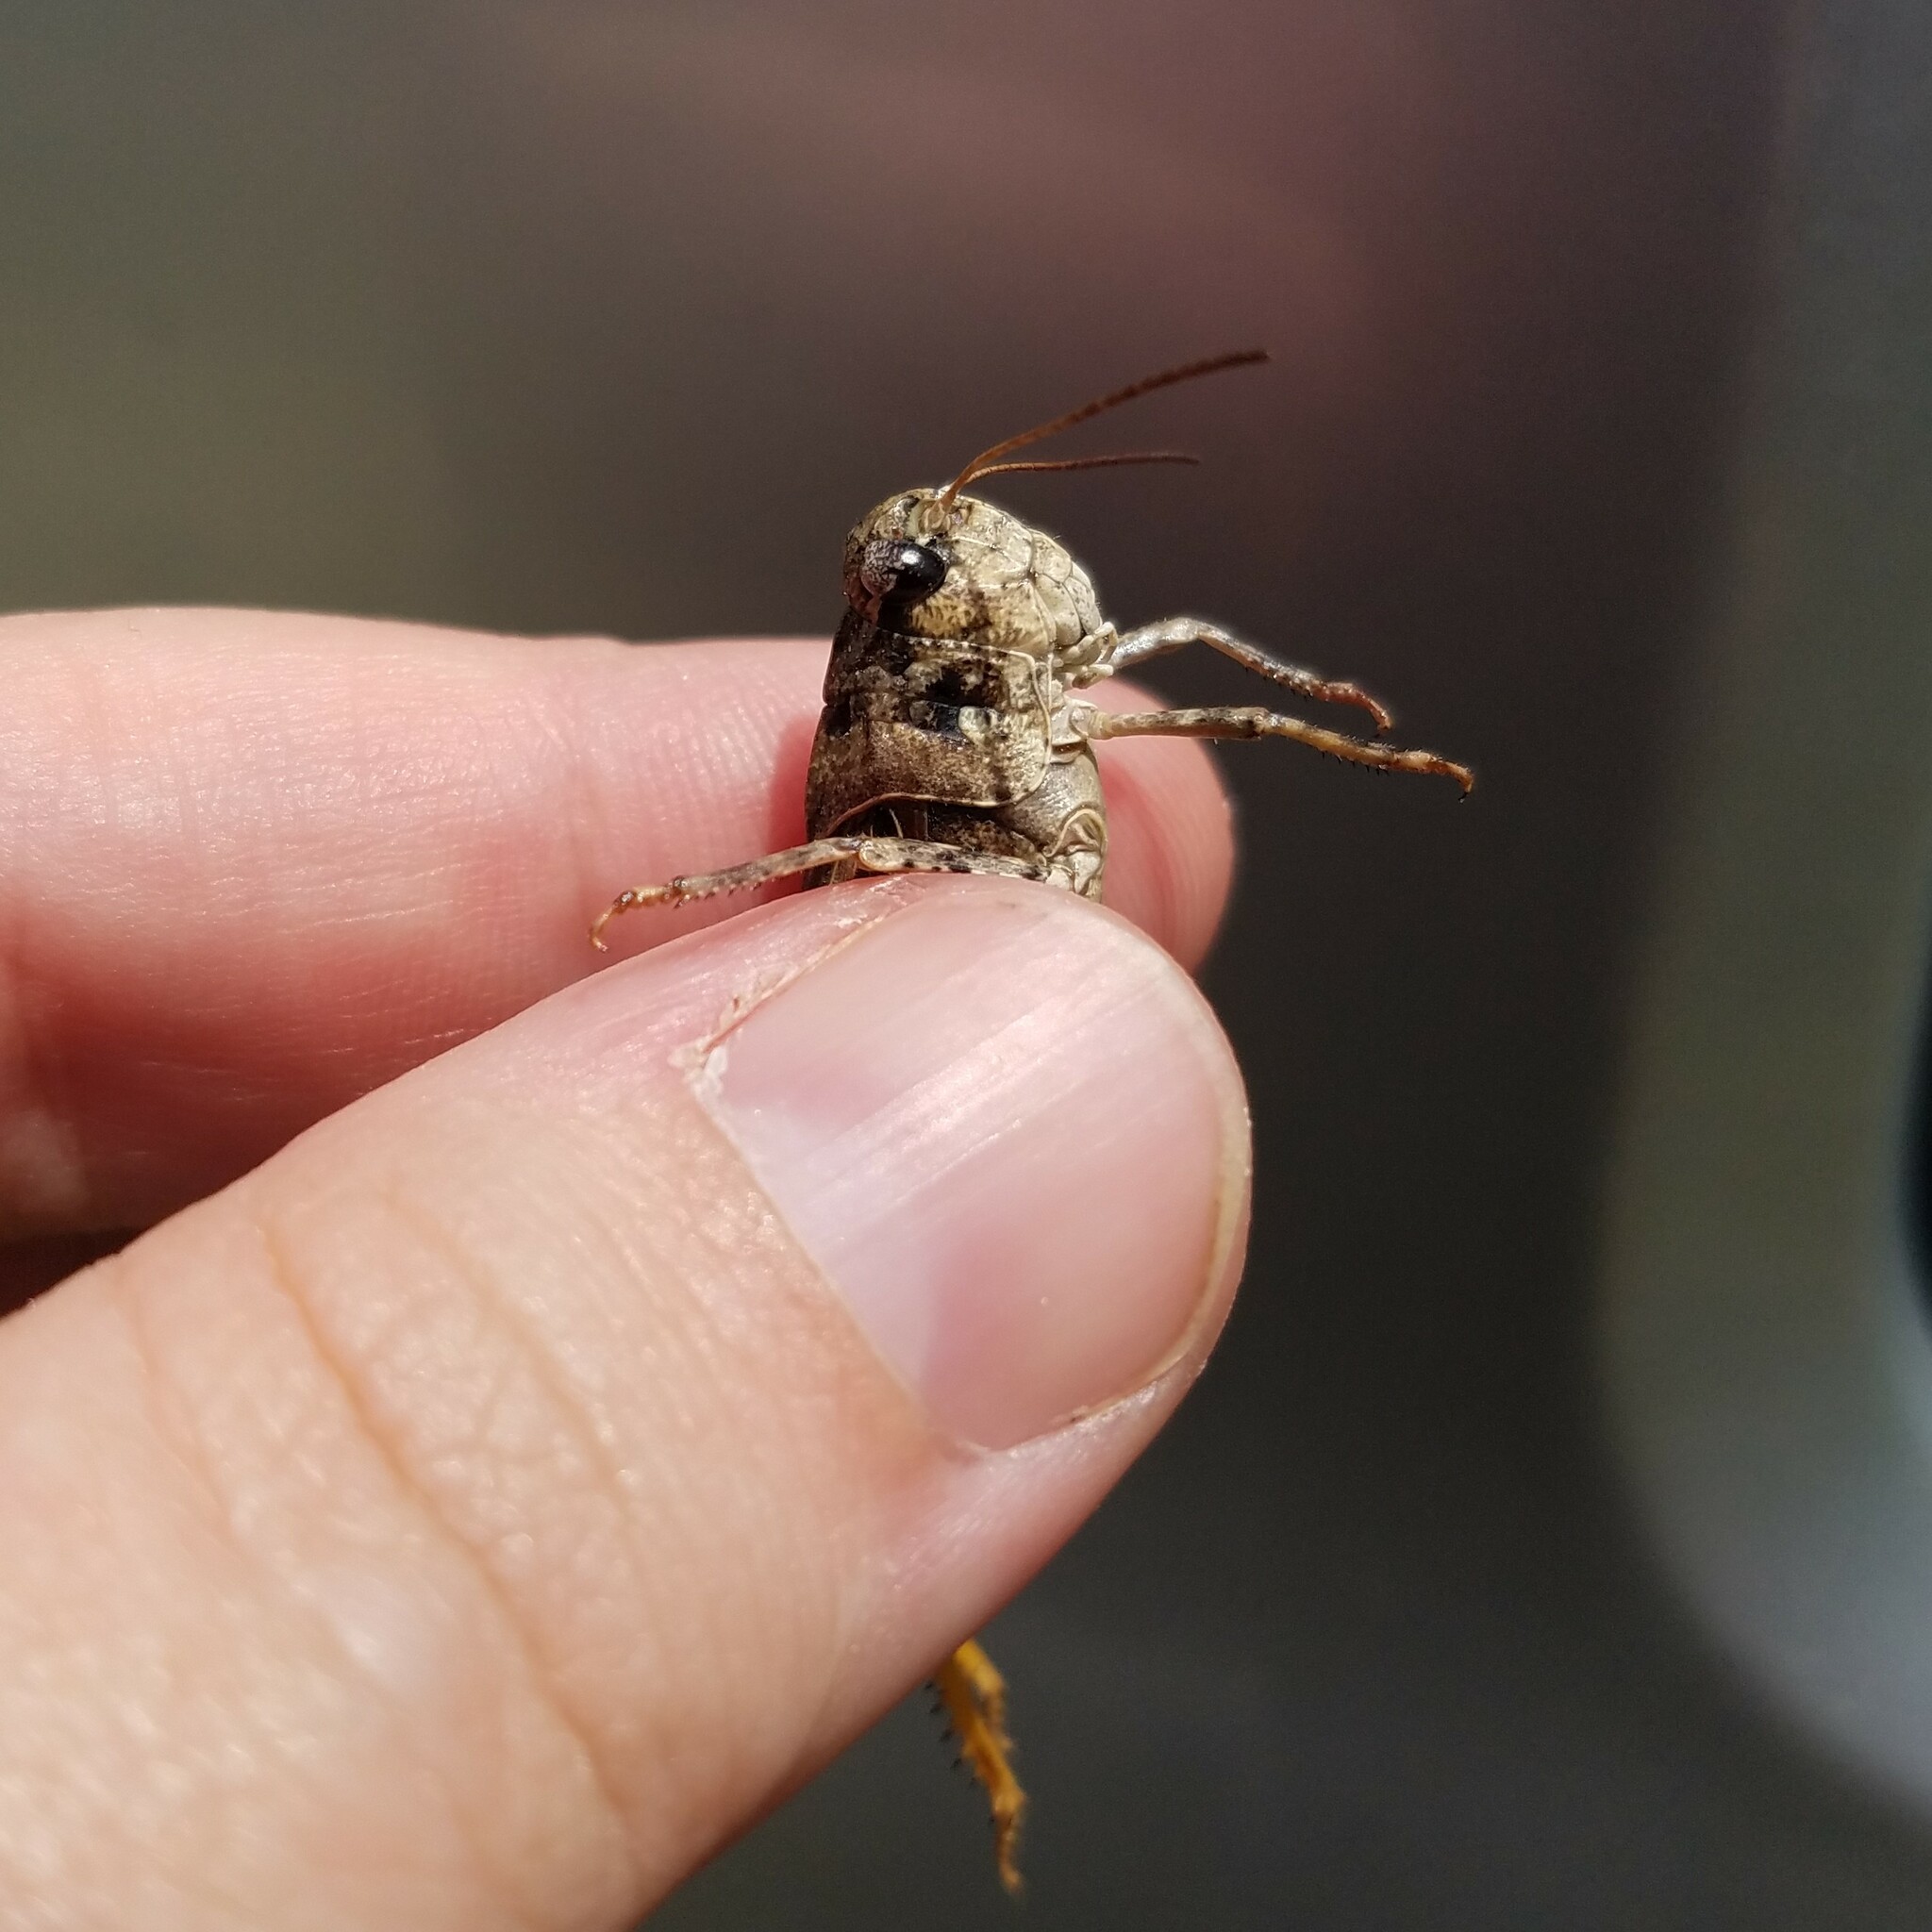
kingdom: Animalia
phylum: Arthropoda
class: Insecta
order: Orthoptera
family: Acrididae
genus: Pardalophora
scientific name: Pardalophora phoenicoptera
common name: Orange-winged grasshopper
